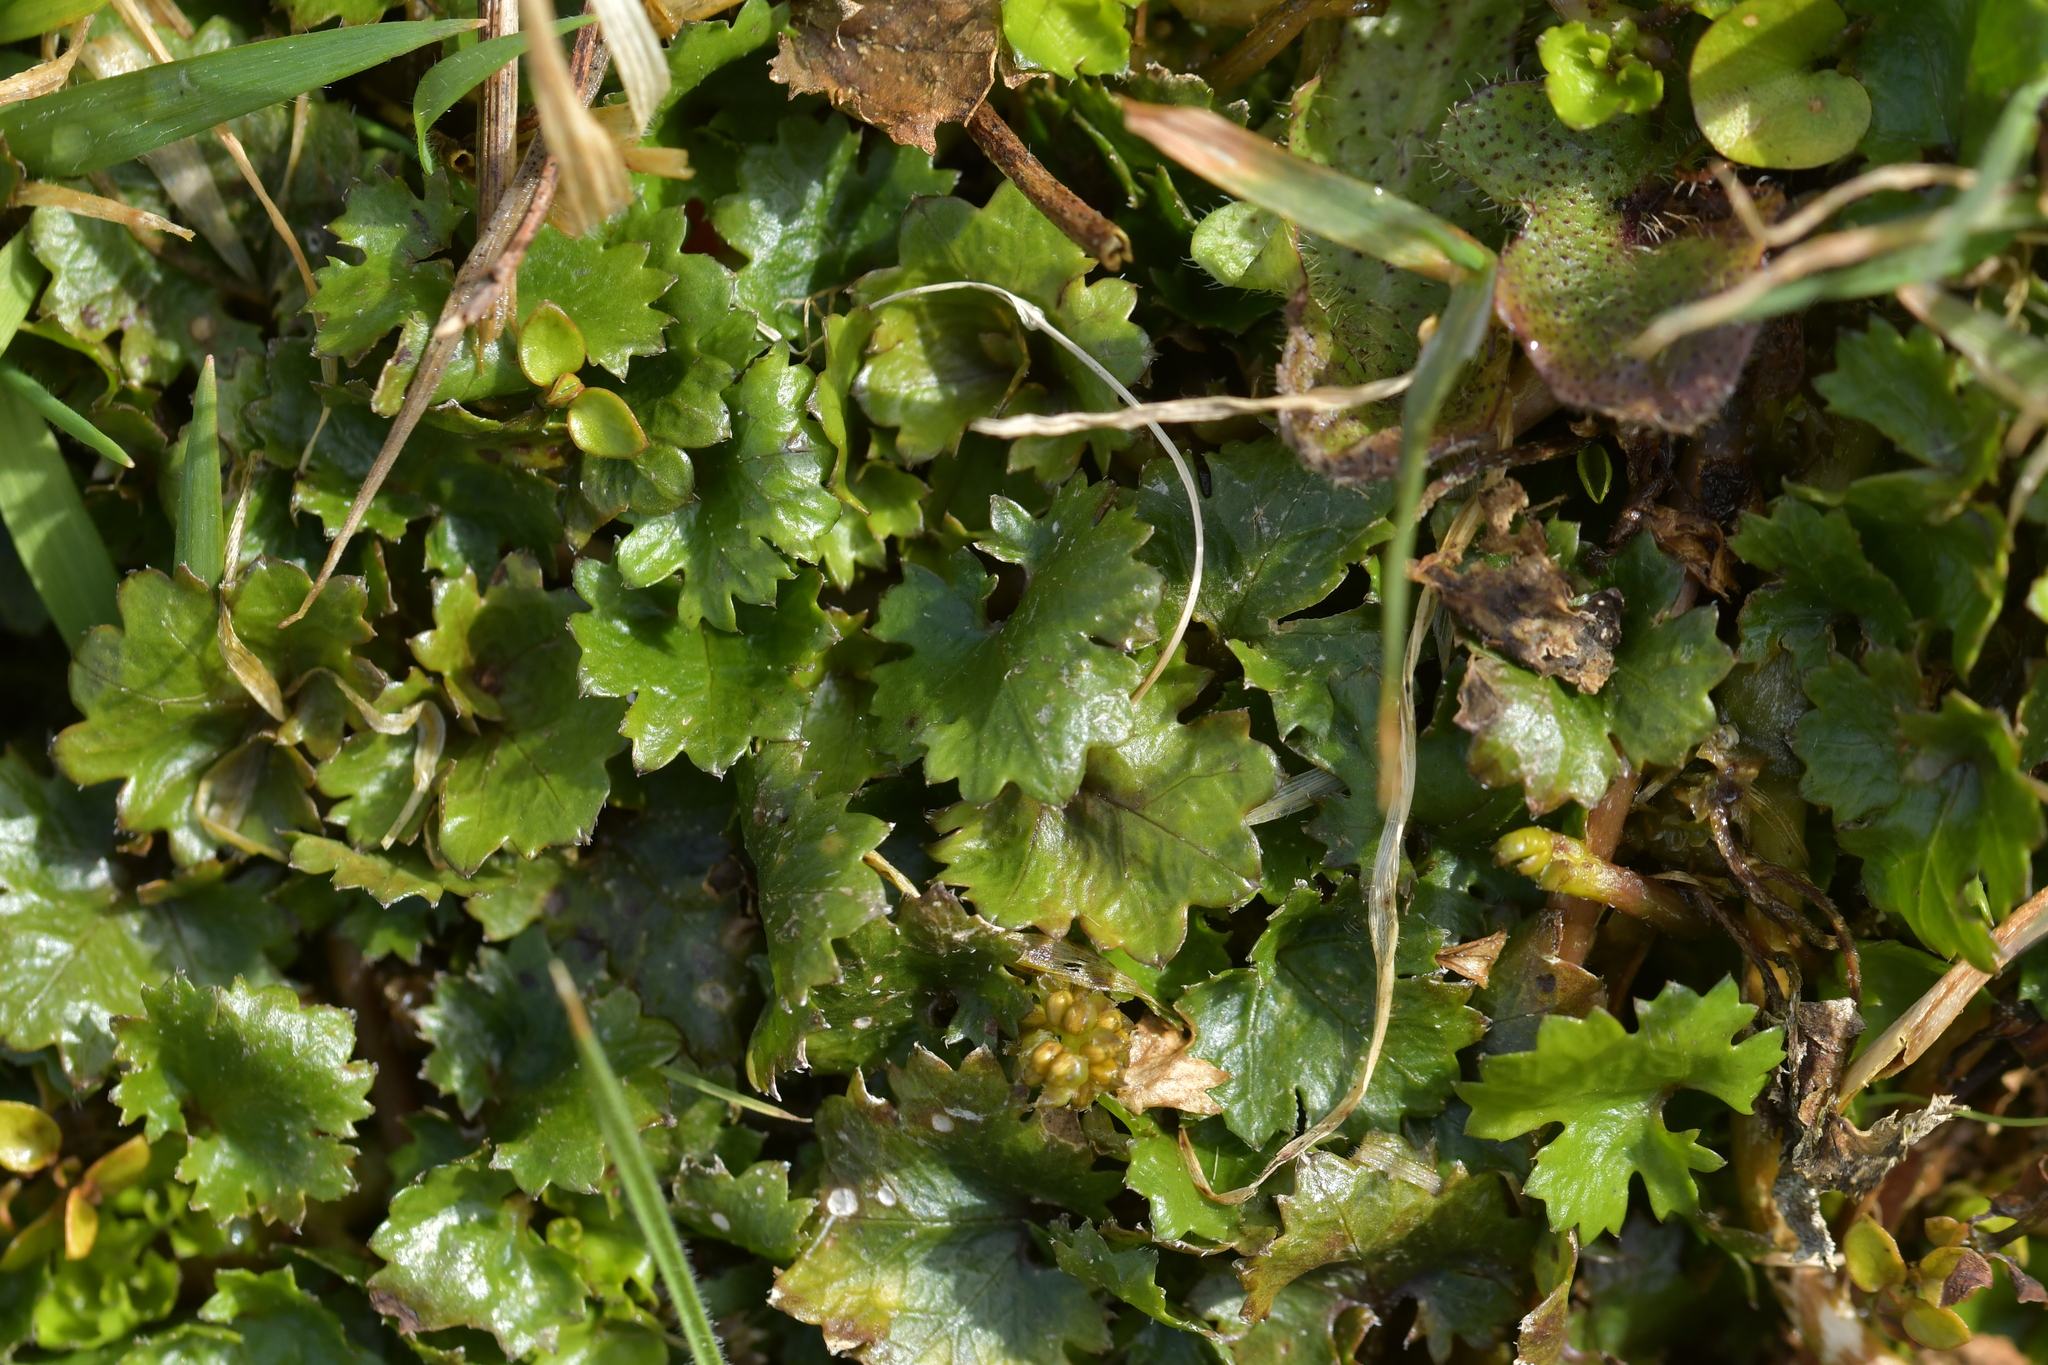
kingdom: Plantae
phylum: Tracheophyta
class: Magnoliopsida
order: Gunnerales
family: Gunneraceae
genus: Gunnera
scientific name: Gunnera monoica
